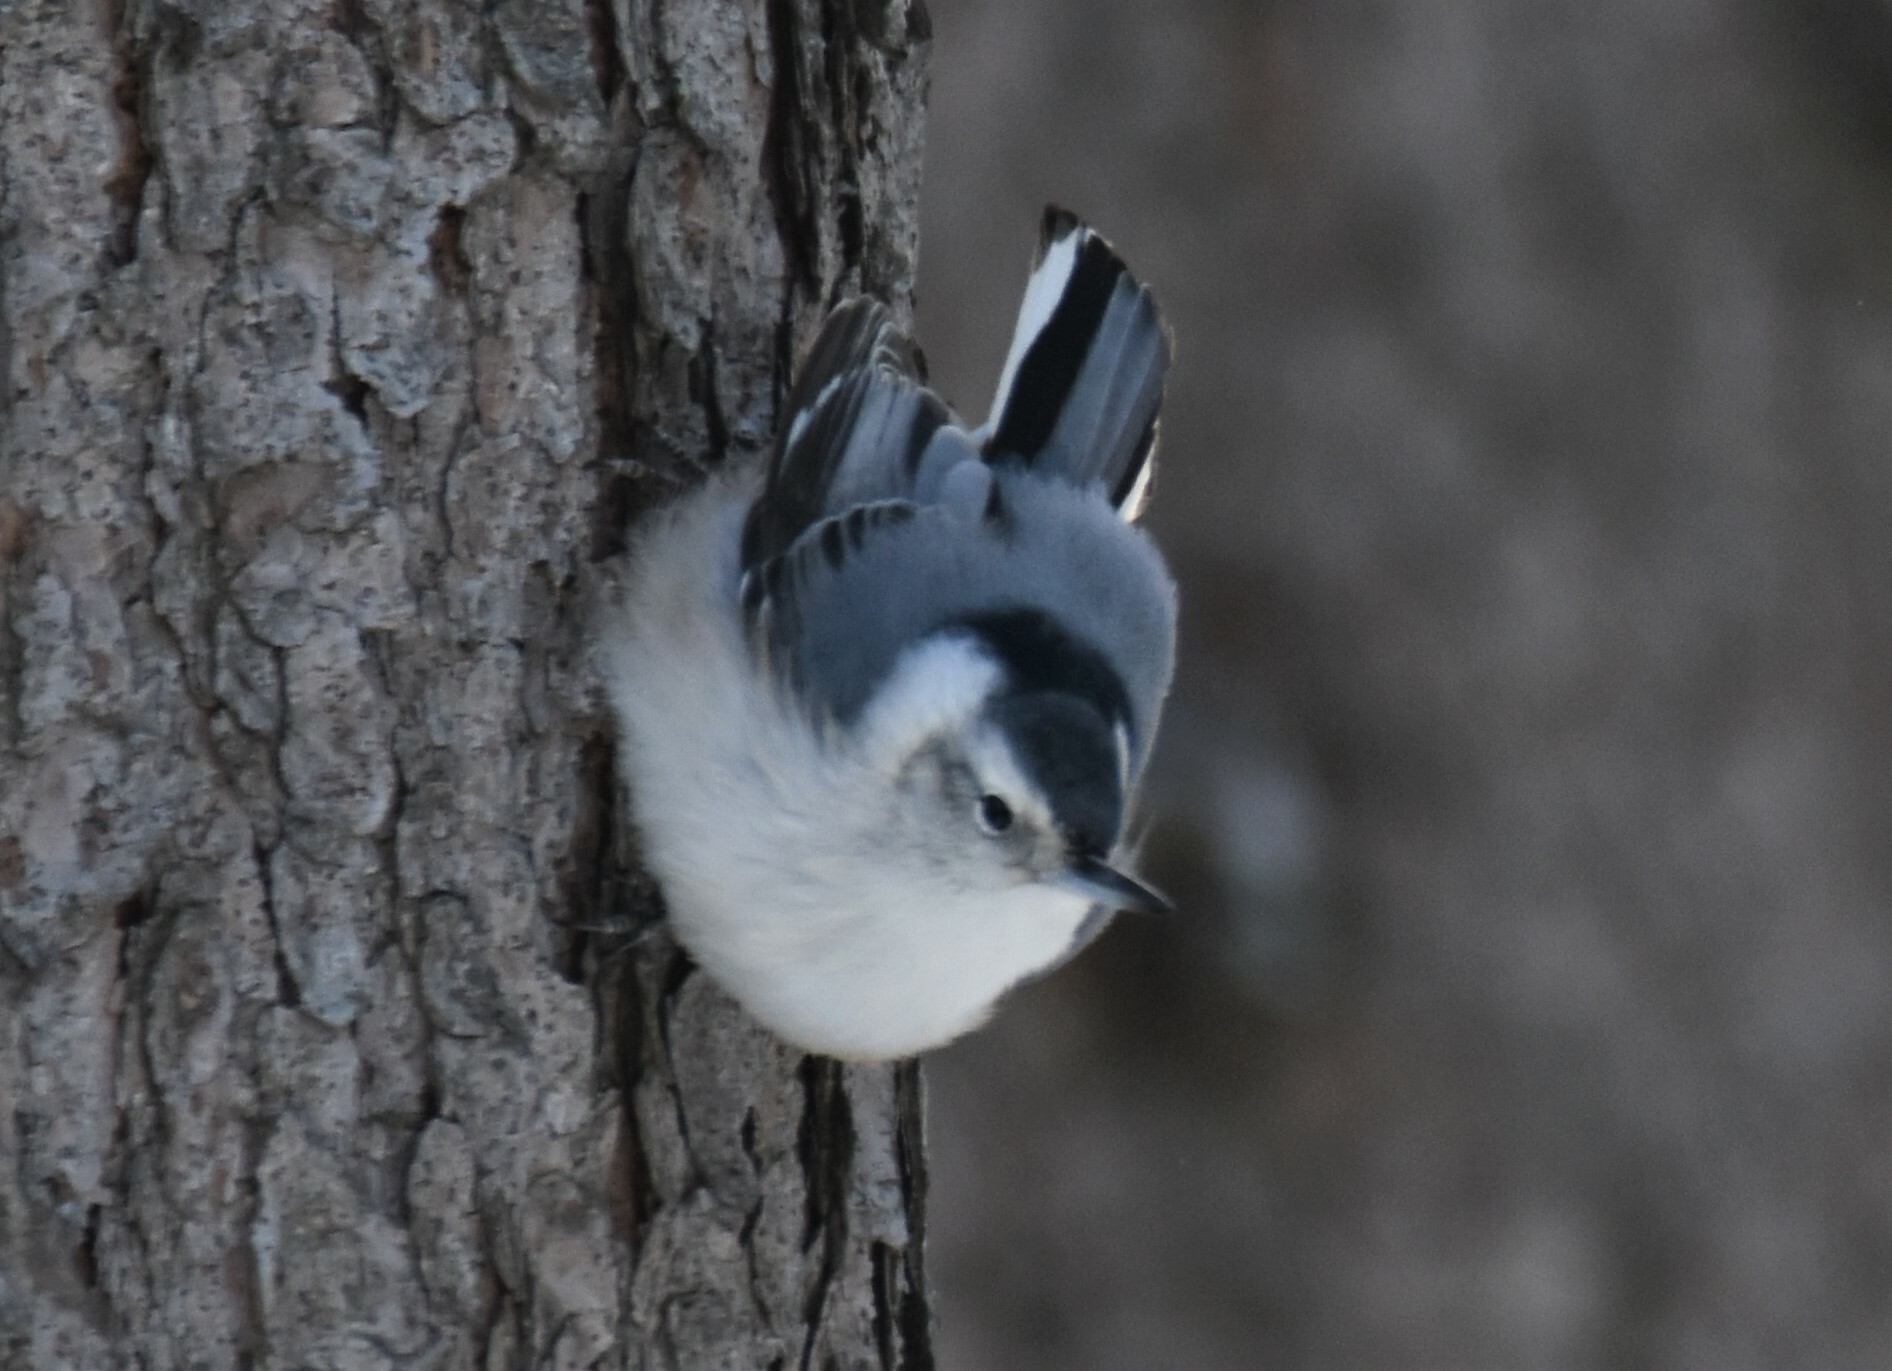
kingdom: Animalia
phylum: Chordata
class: Aves
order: Passeriformes
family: Sittidae
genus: Sitta
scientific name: Sitta carolinensis
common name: White-breasted nuthatch
